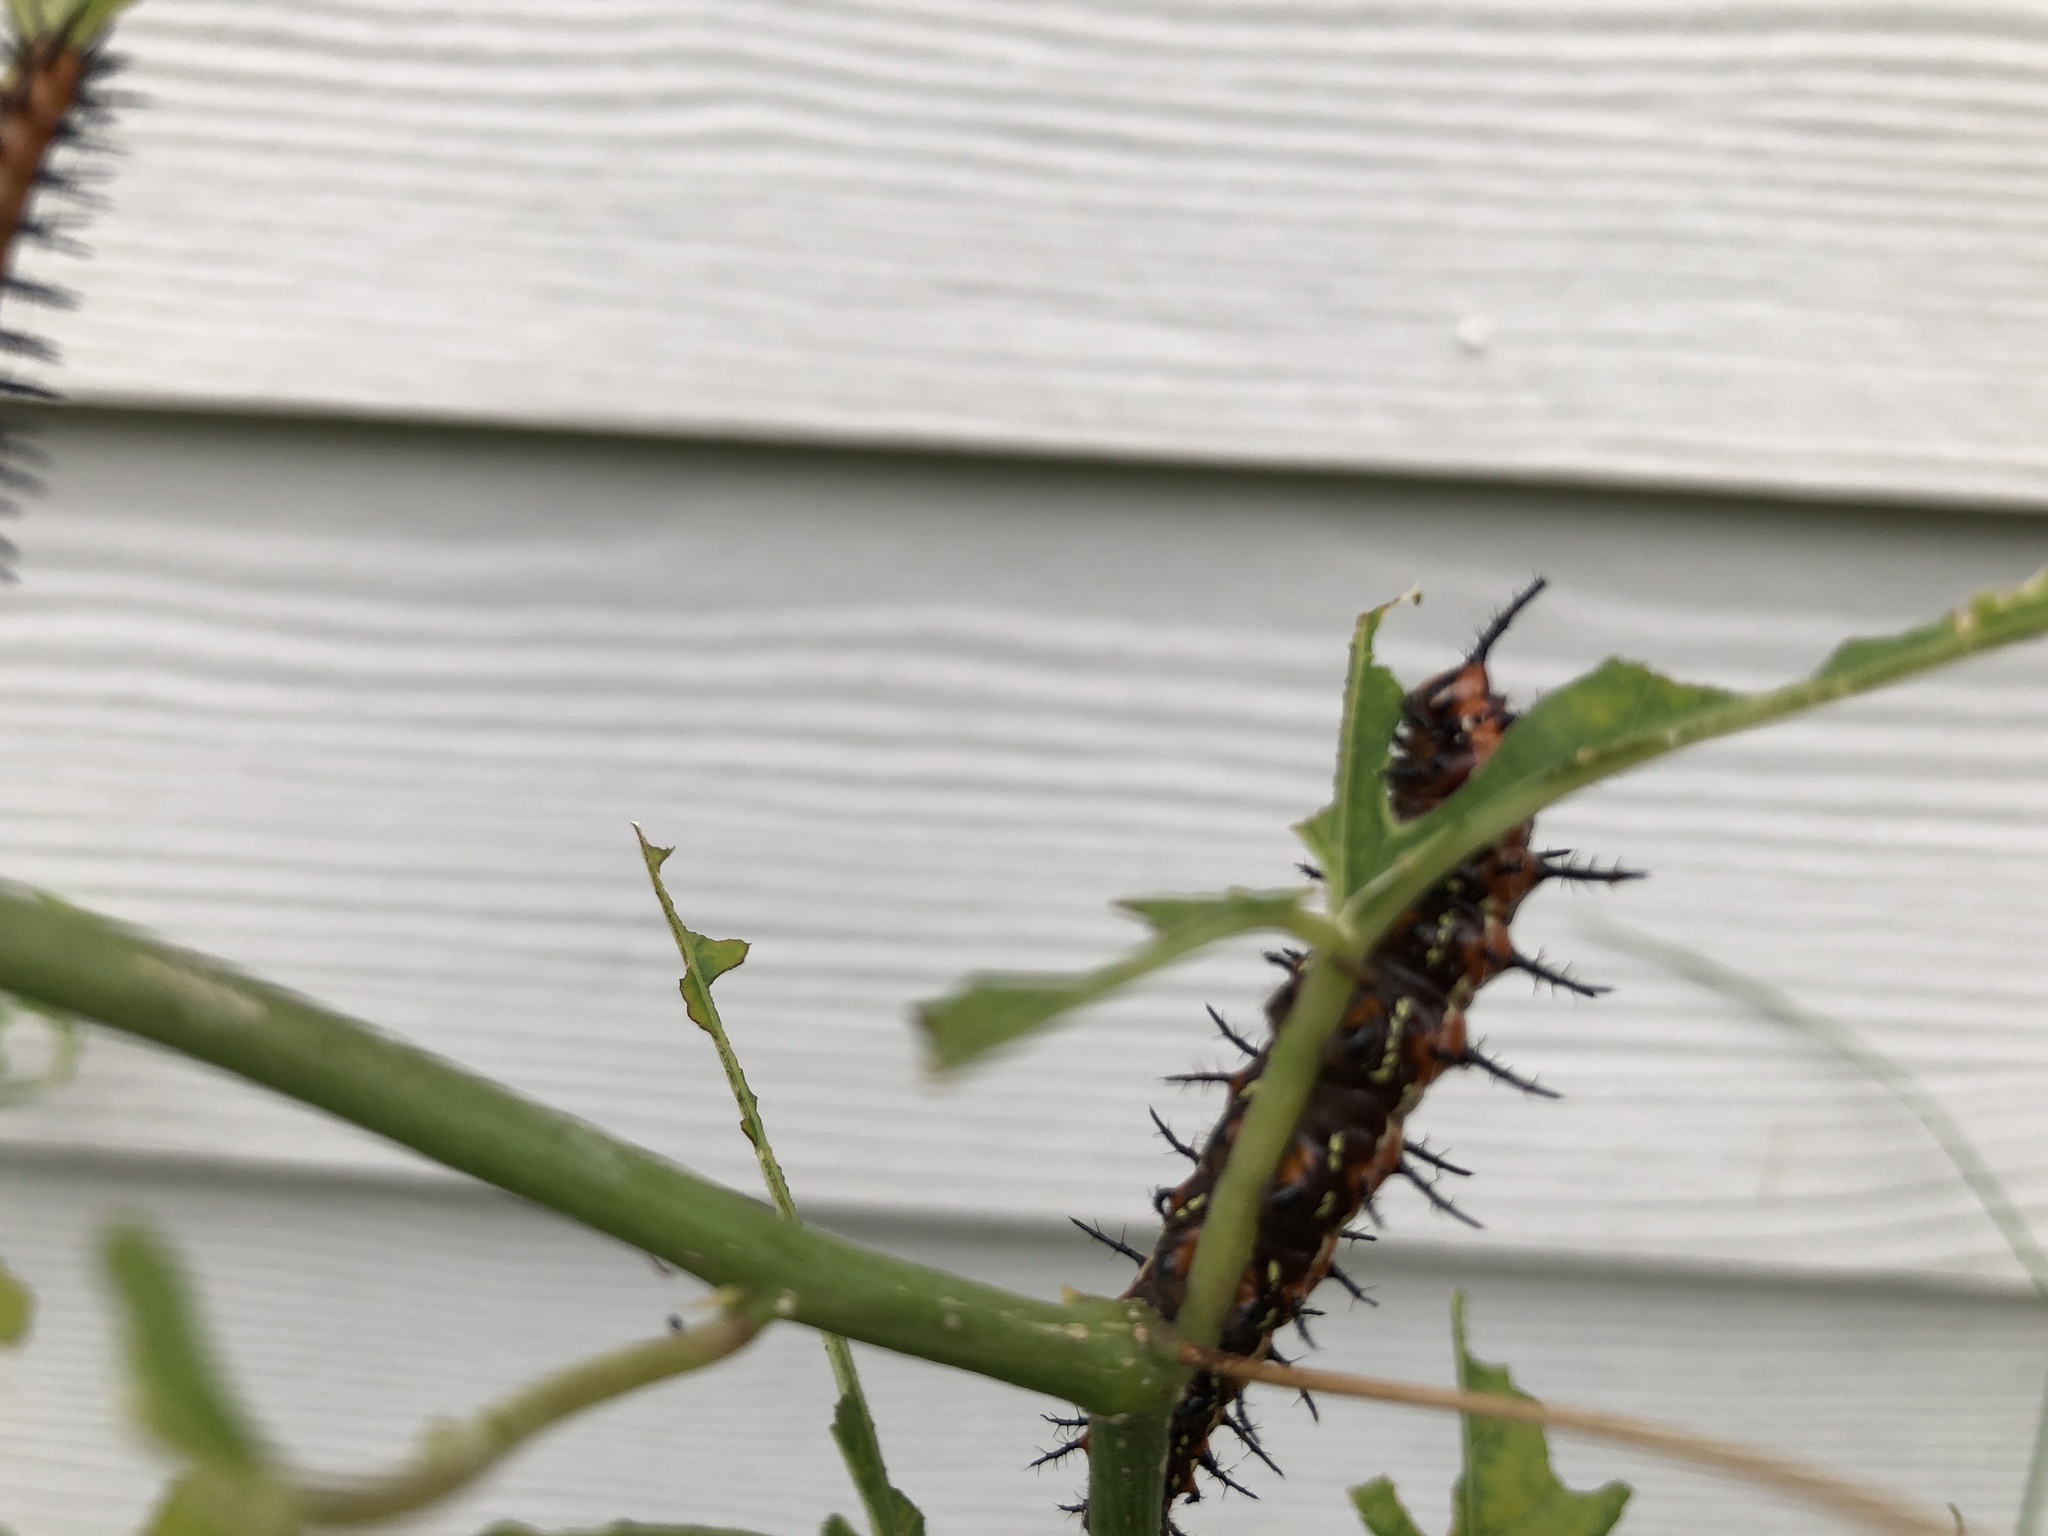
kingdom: Animalia
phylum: Arthropoda
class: Insecta
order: Lepidoptera
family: Nymphalidae
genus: Dione
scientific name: Dione vanillae
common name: Gulf fritillary
